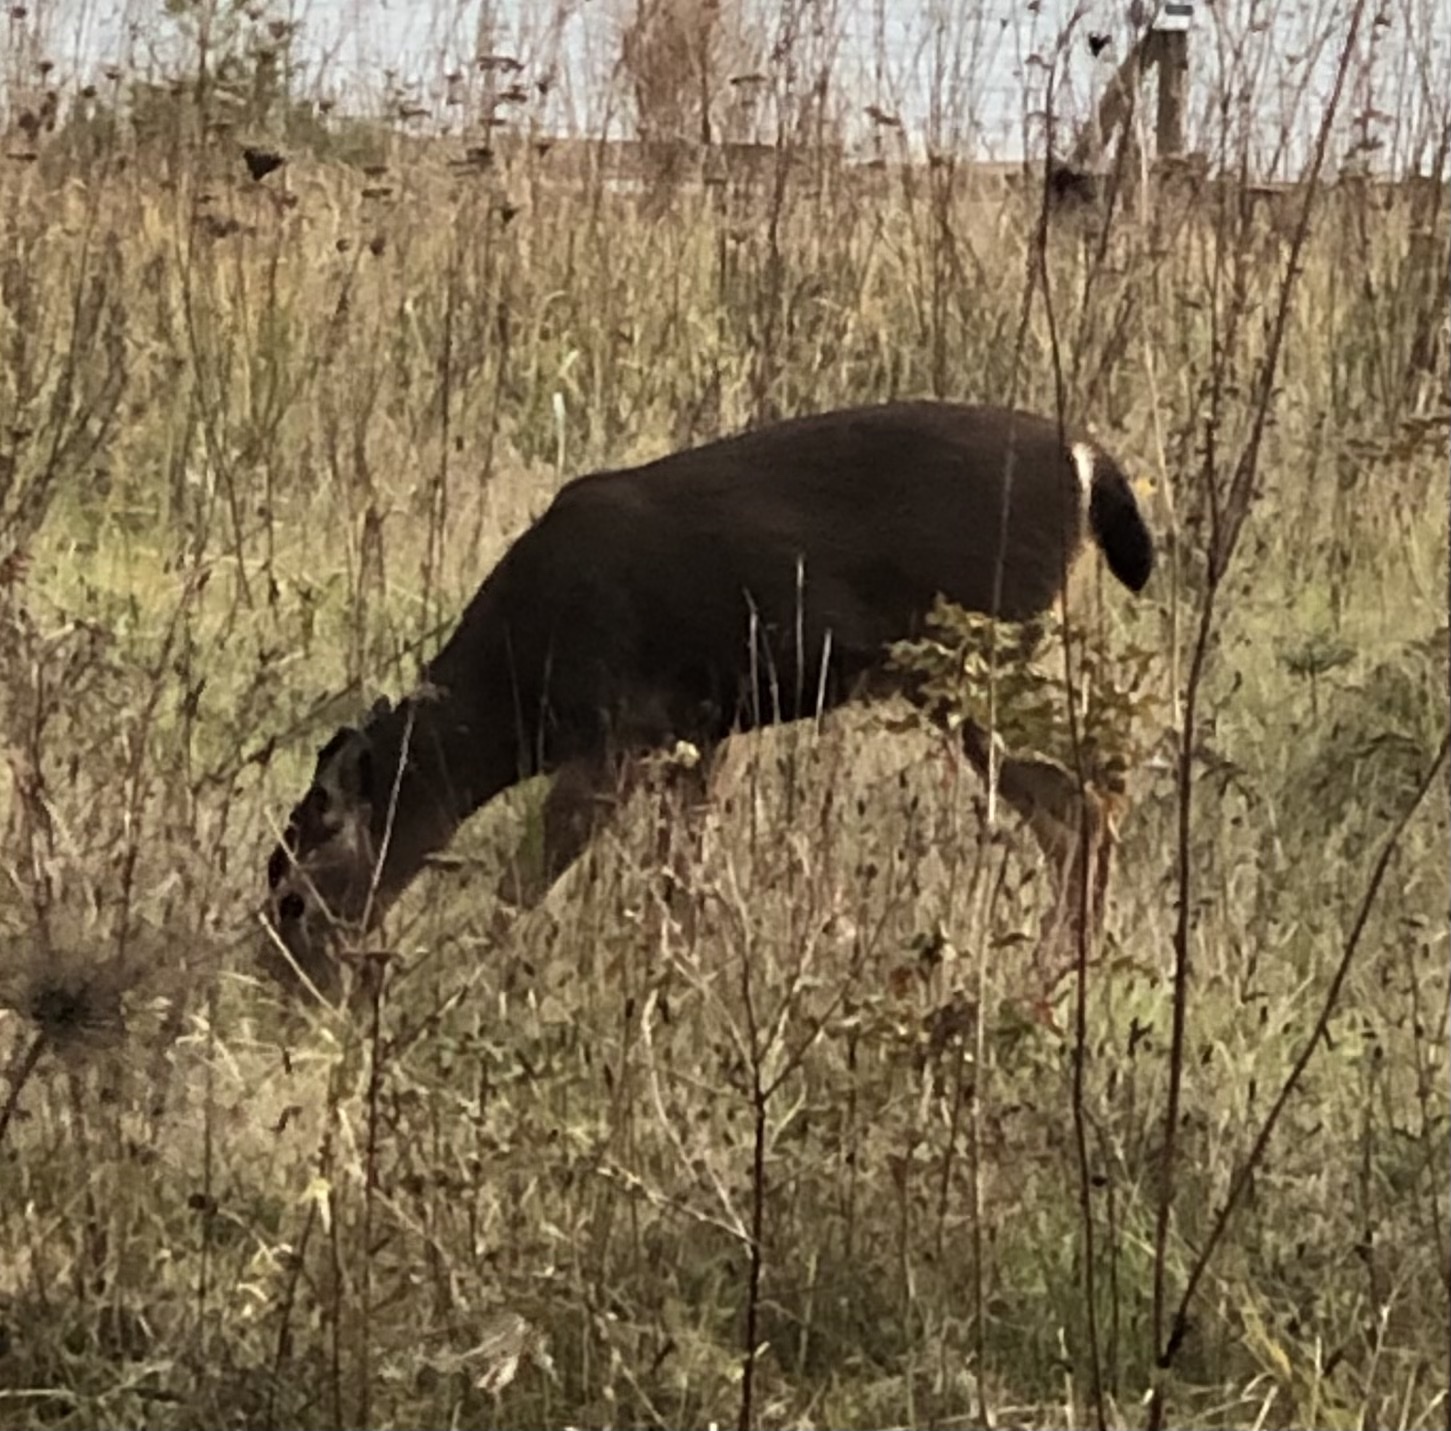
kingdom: Animalia
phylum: Chordata
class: Mammalia
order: Artiodactyla
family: Cervidae
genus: Odocoileus
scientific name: Odocoileus hemionus
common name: Mule deer
